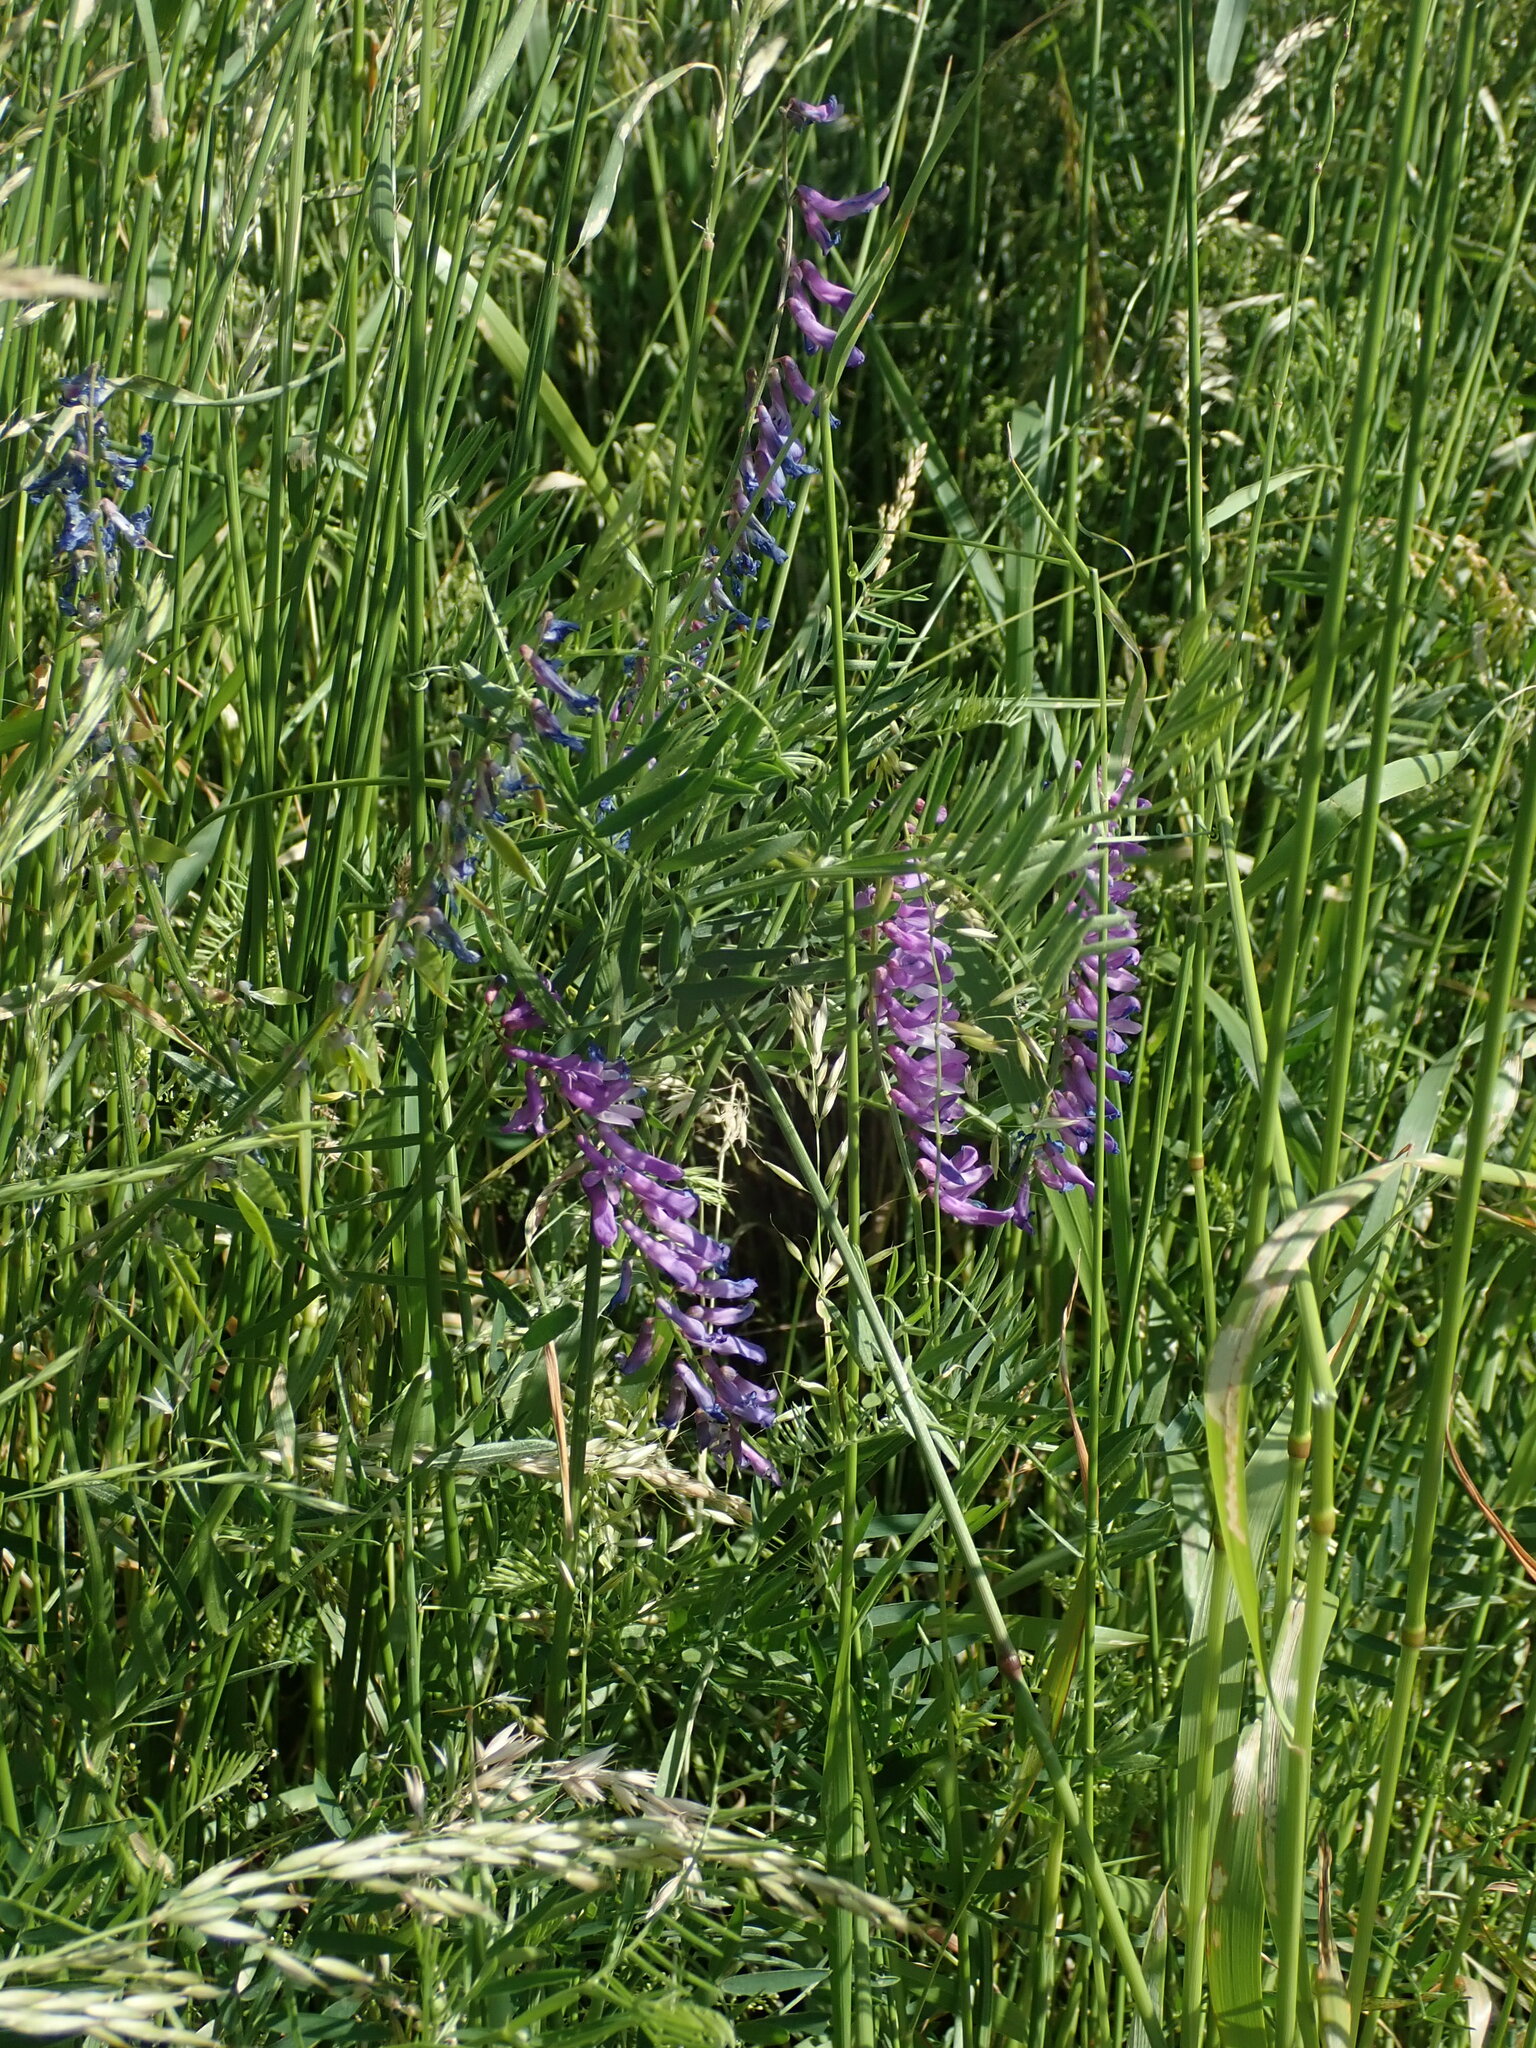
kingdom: Plantae
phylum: Tracheophyta
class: Magnoliopsida
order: Fabales
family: Fabaceae
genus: Vicia
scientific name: Vicia cracca
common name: Bird vetch
